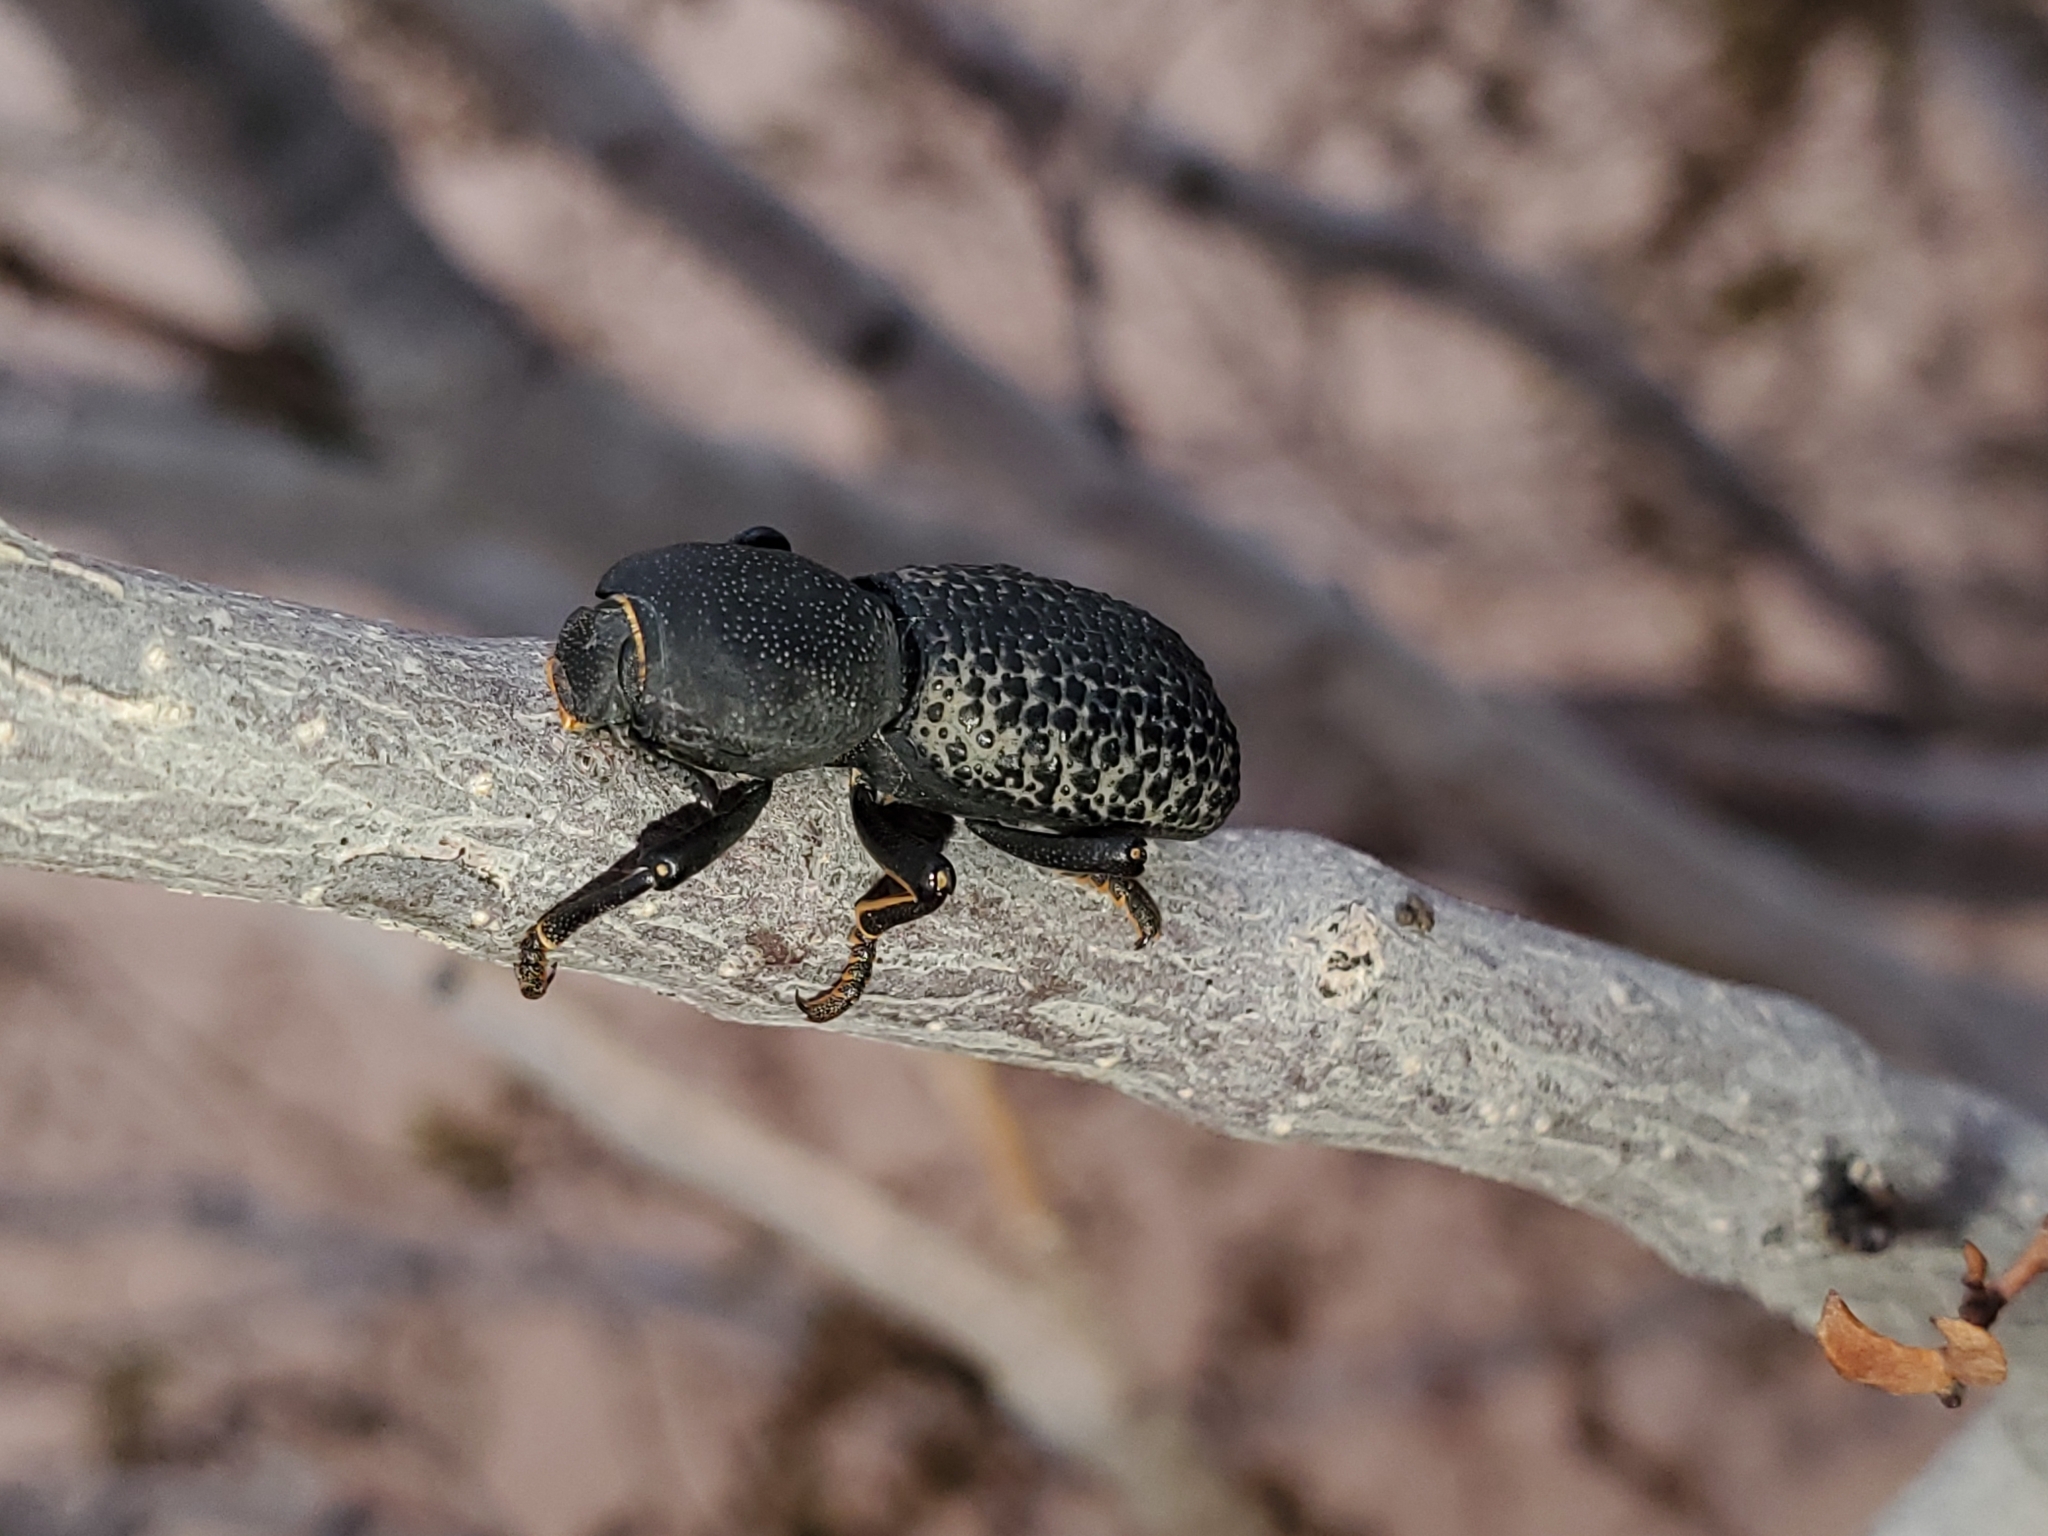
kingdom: Animalia
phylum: Arthropoda
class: Insecta
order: Coleoptera
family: Zopheridae
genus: Zopherus
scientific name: Zopherus tristis
